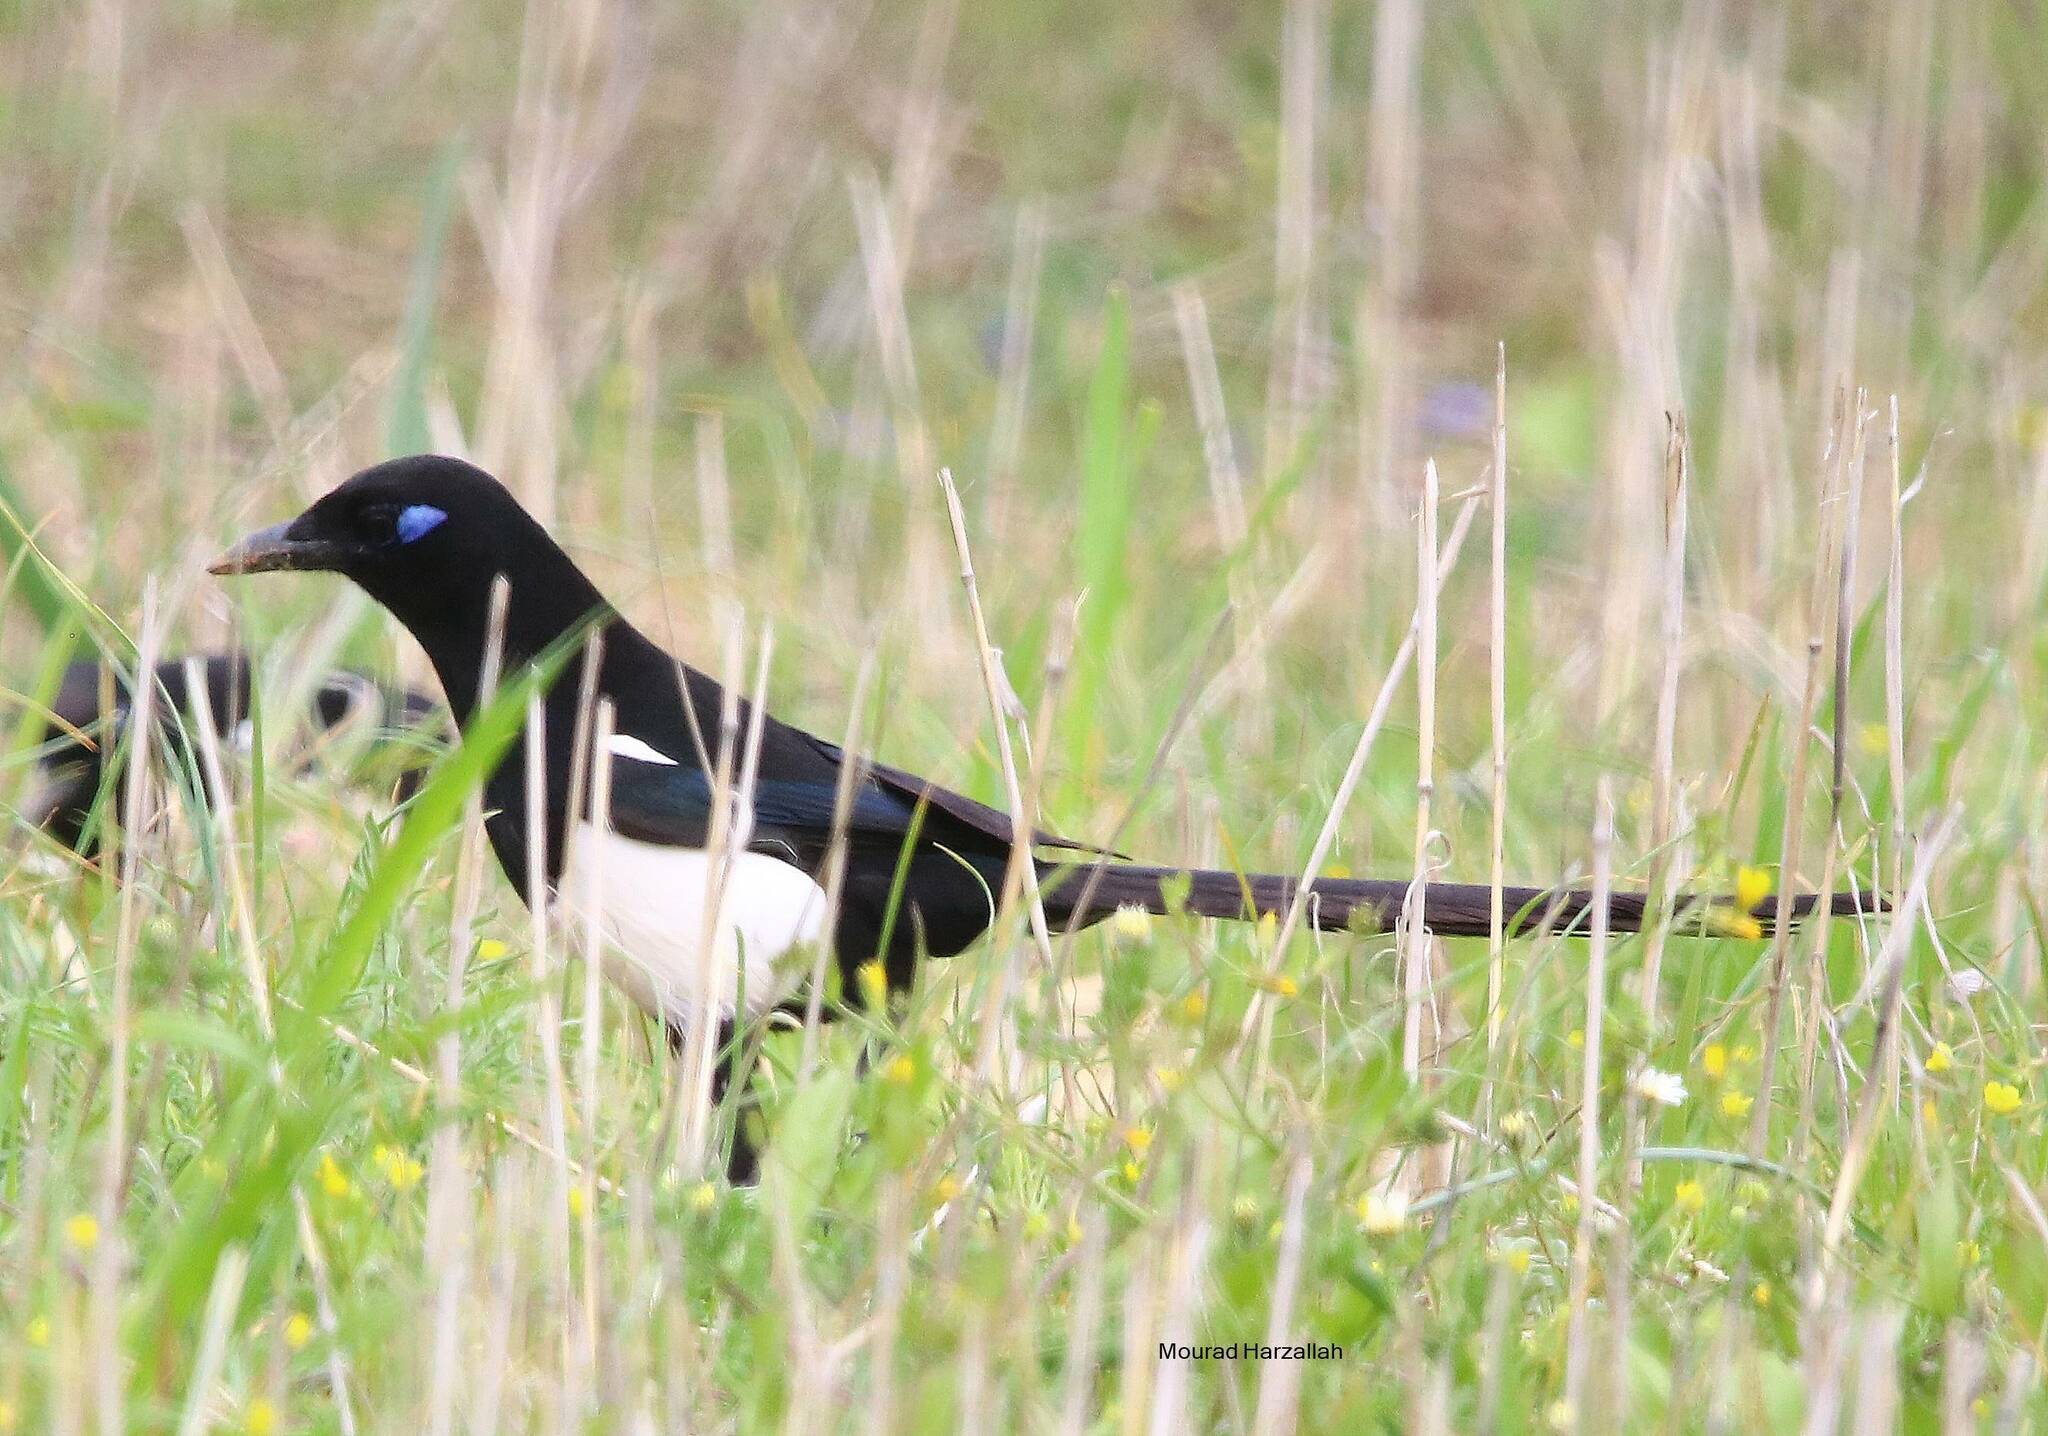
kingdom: Animalia
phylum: Chordata
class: Aves
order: Passeriformes
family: Corvidae
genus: Pica
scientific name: Pica mauritanica
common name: Maghreb magpie
